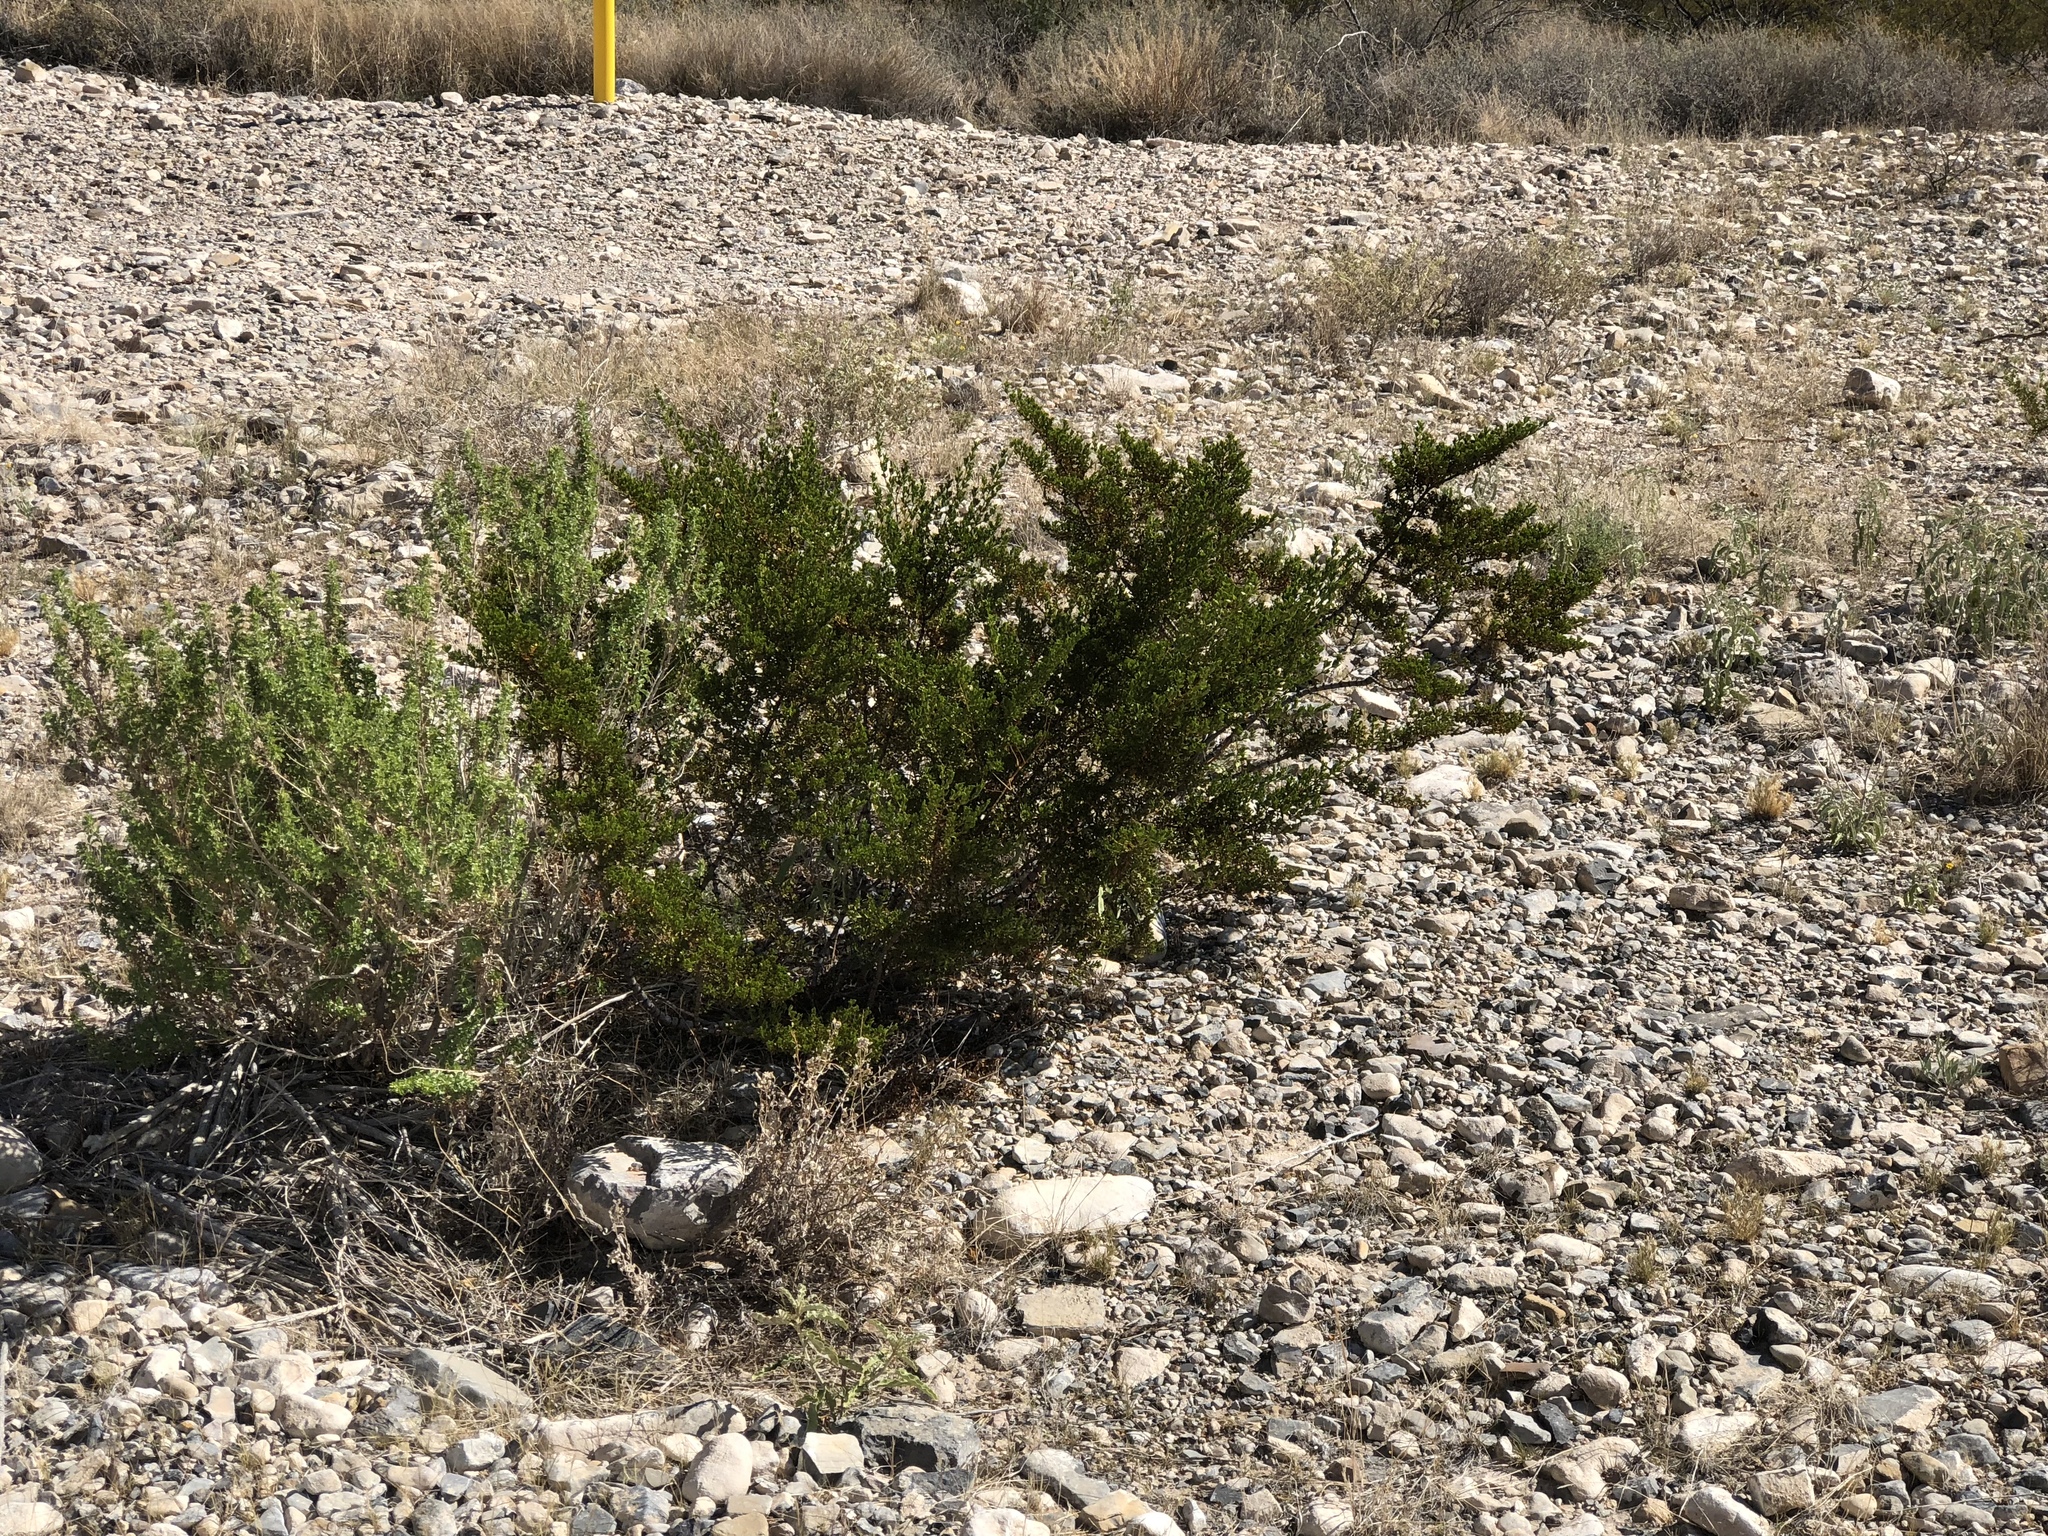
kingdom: Plantae
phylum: Tracheophyta
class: Magnoliopsida
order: Zygophyllales
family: Zygophyllaceae
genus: Larrea
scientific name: Larrea tridentata
